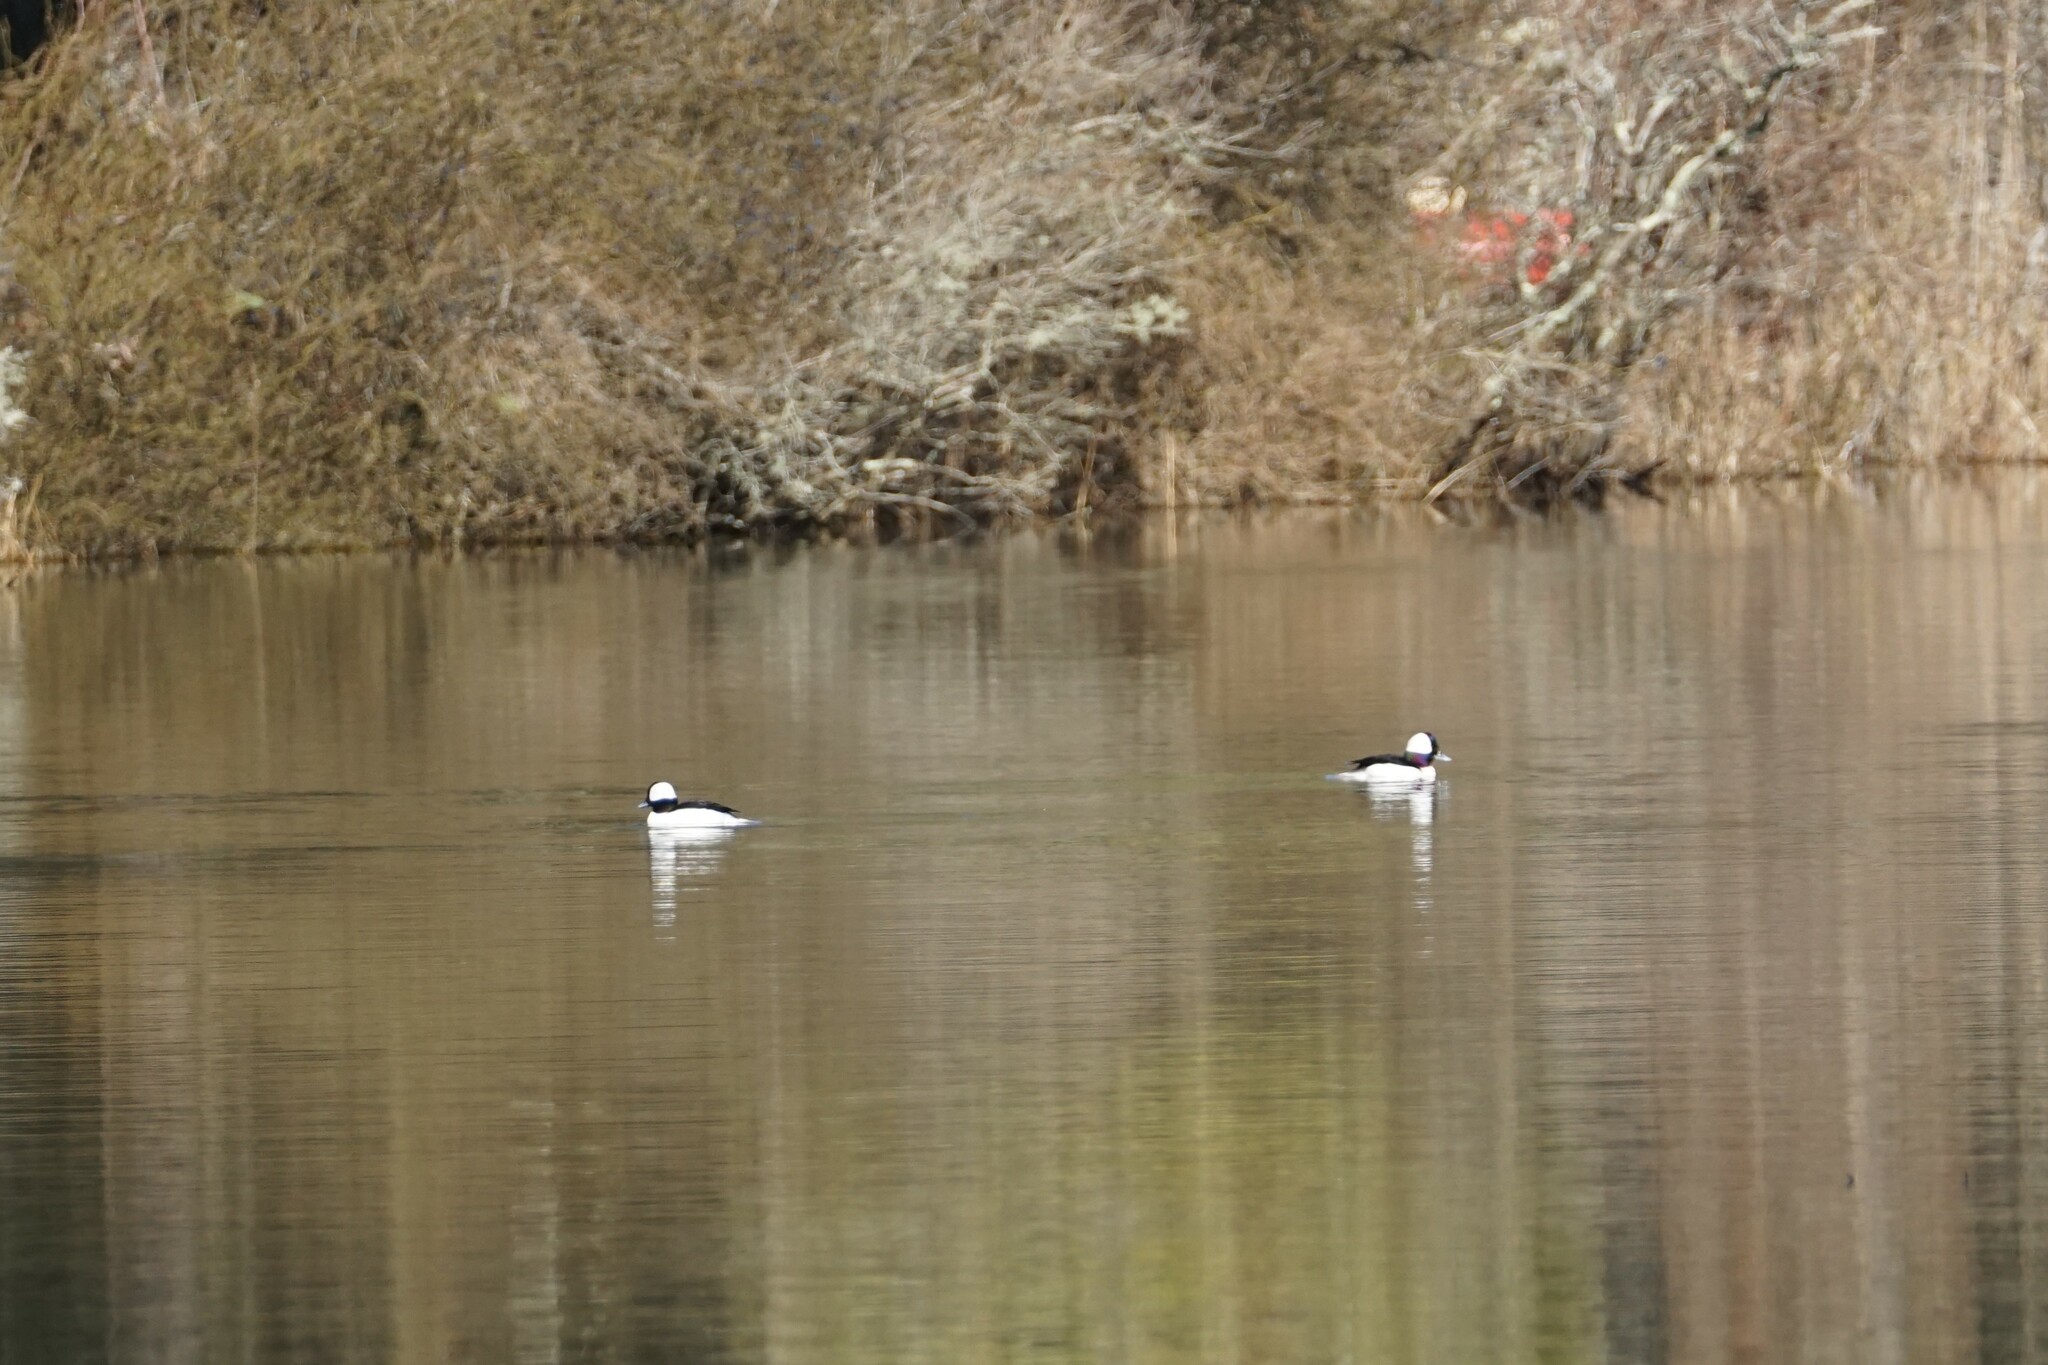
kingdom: Animalia
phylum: Chordata
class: Aves
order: Anseriformes
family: Anatidae
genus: Bucephala
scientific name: Bucephala albeola
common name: Bufflehead
